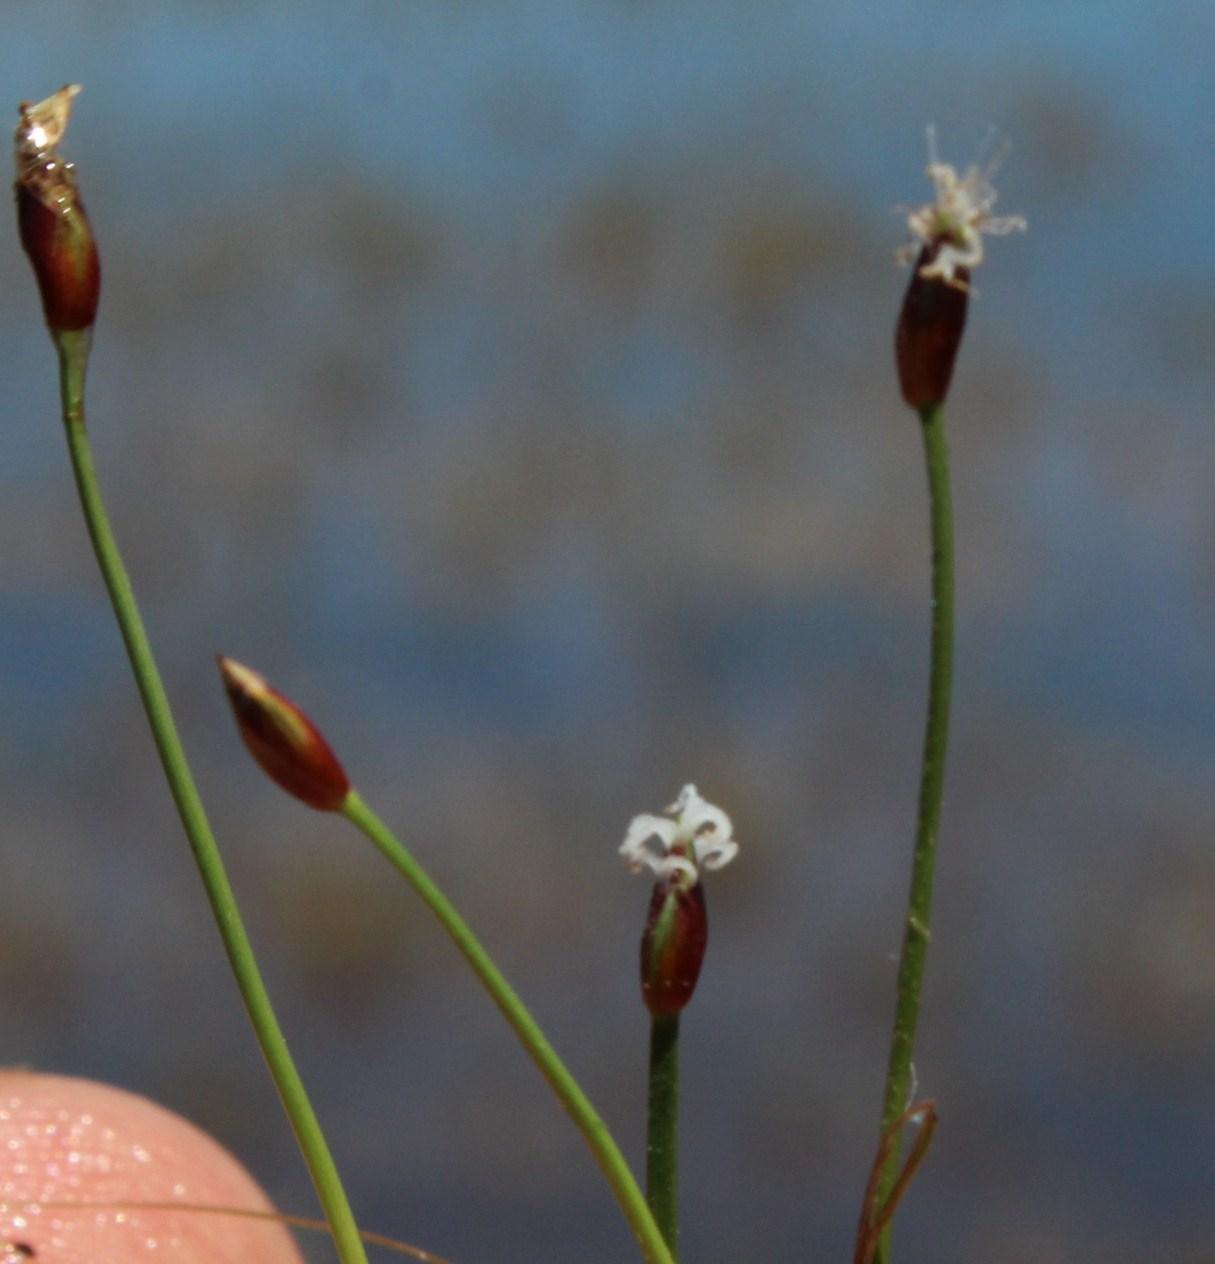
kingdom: Plantae
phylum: Tracheophyta
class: Liliopsida
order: Poales
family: Cyperaceae
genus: Isolepis
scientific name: Isolepis rubicunda
